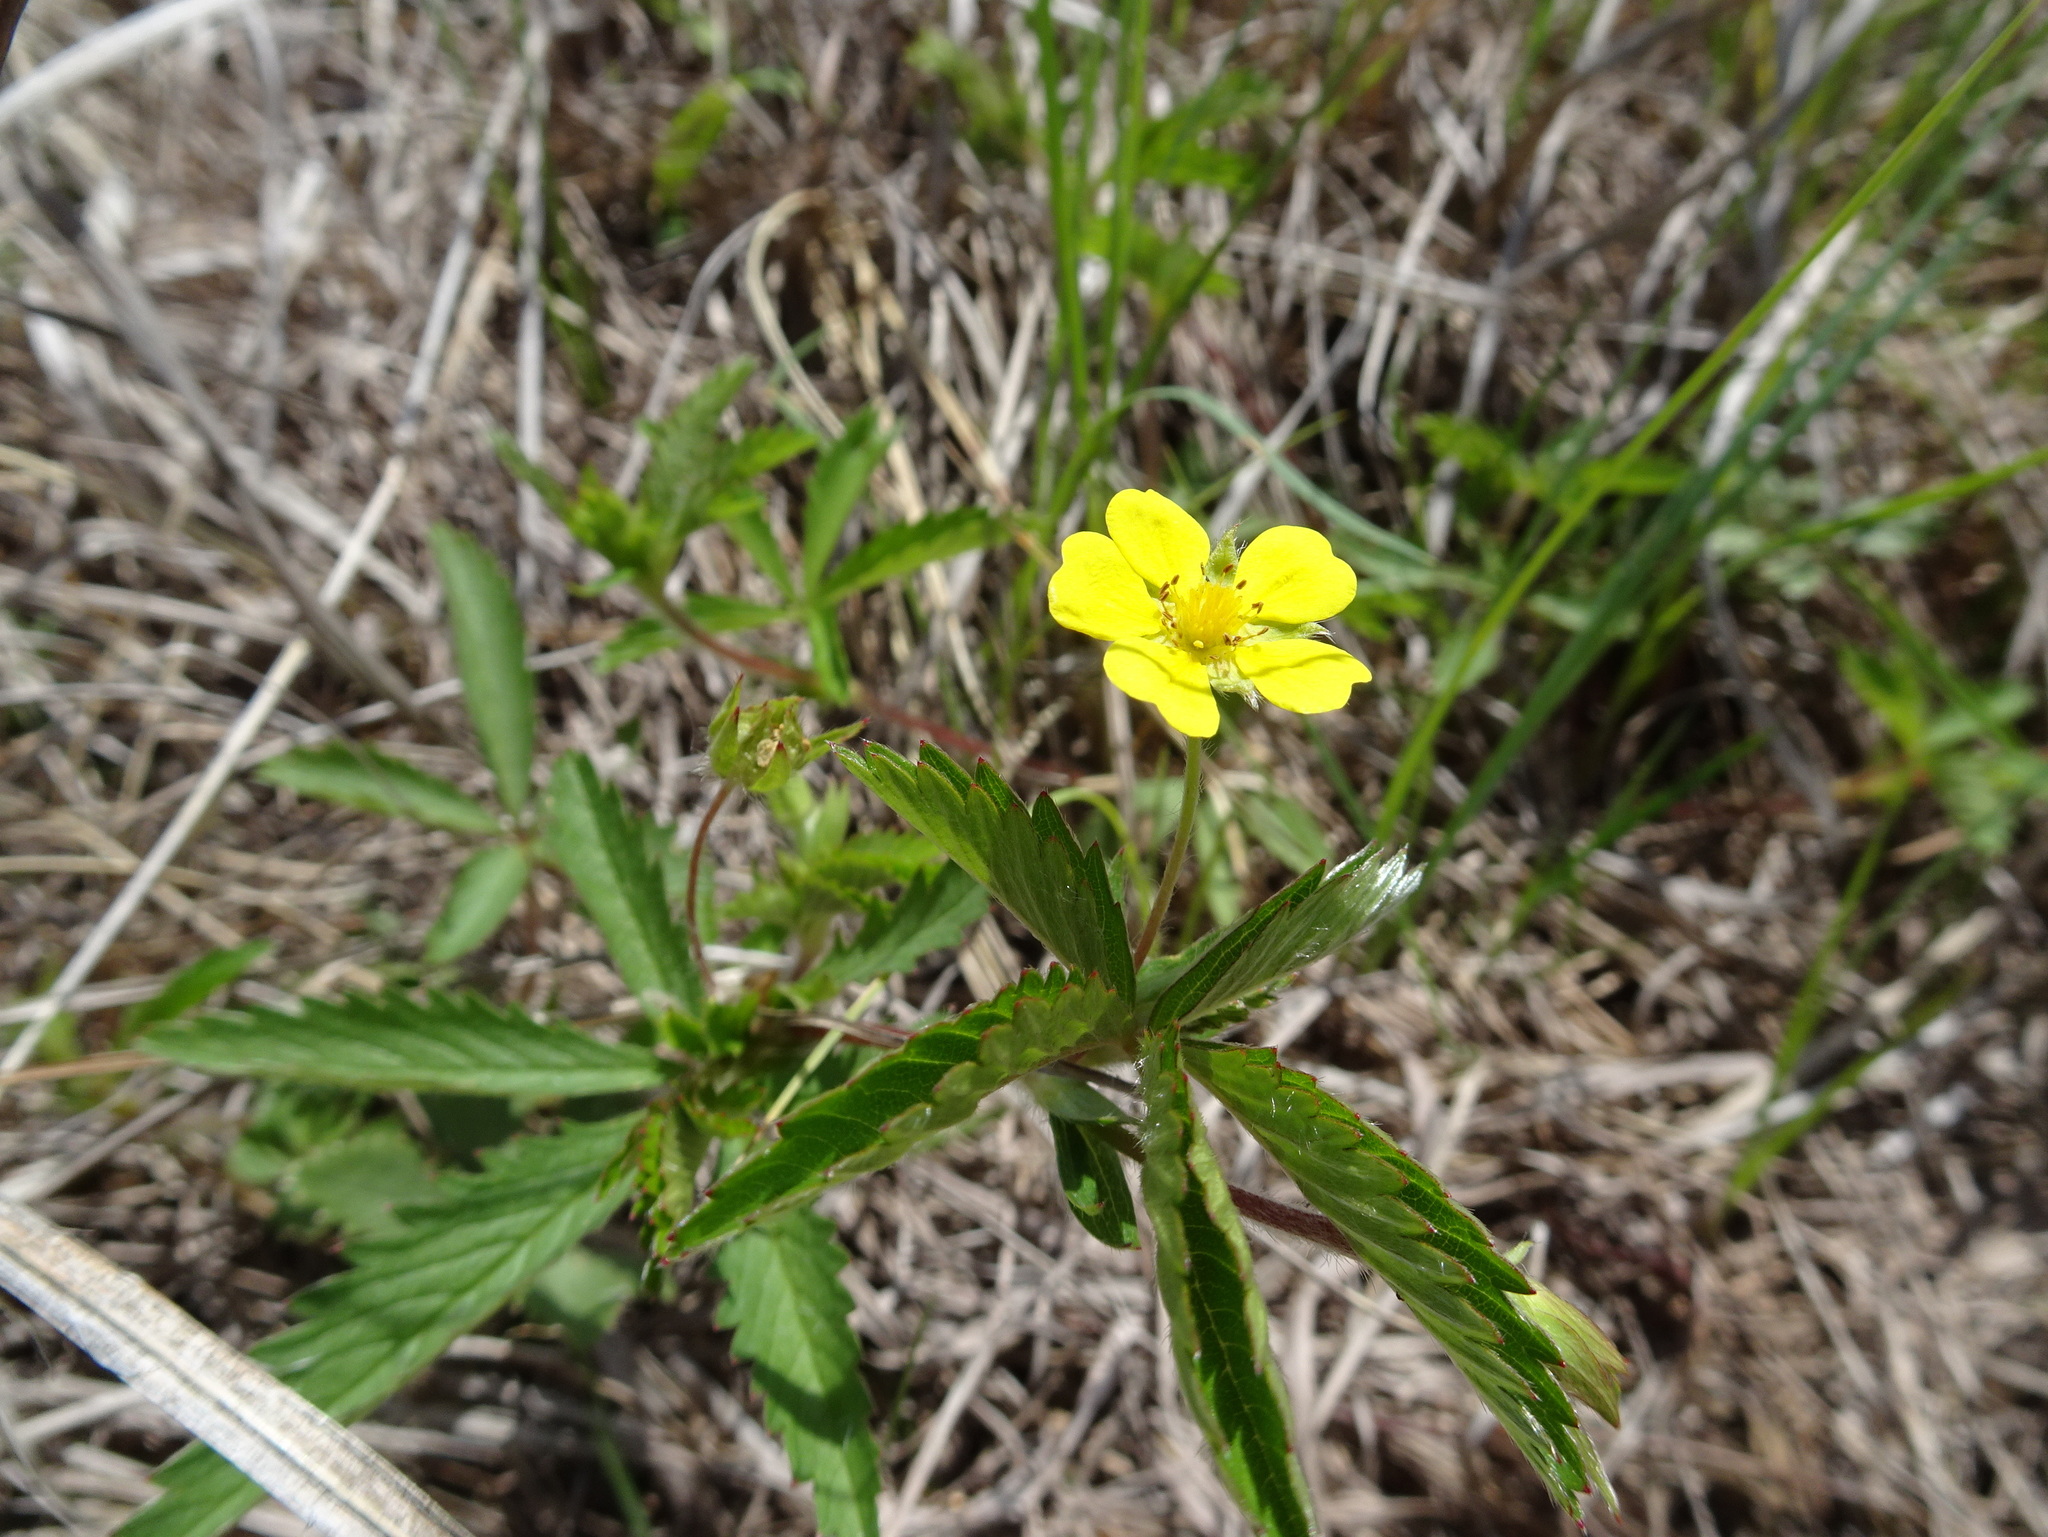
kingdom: Plantae
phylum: Tracheophyta
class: Magnoliopsida
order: Rosales
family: Rosaceae
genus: Potentilla
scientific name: Potentilla simplex
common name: Old field cinquefoil
